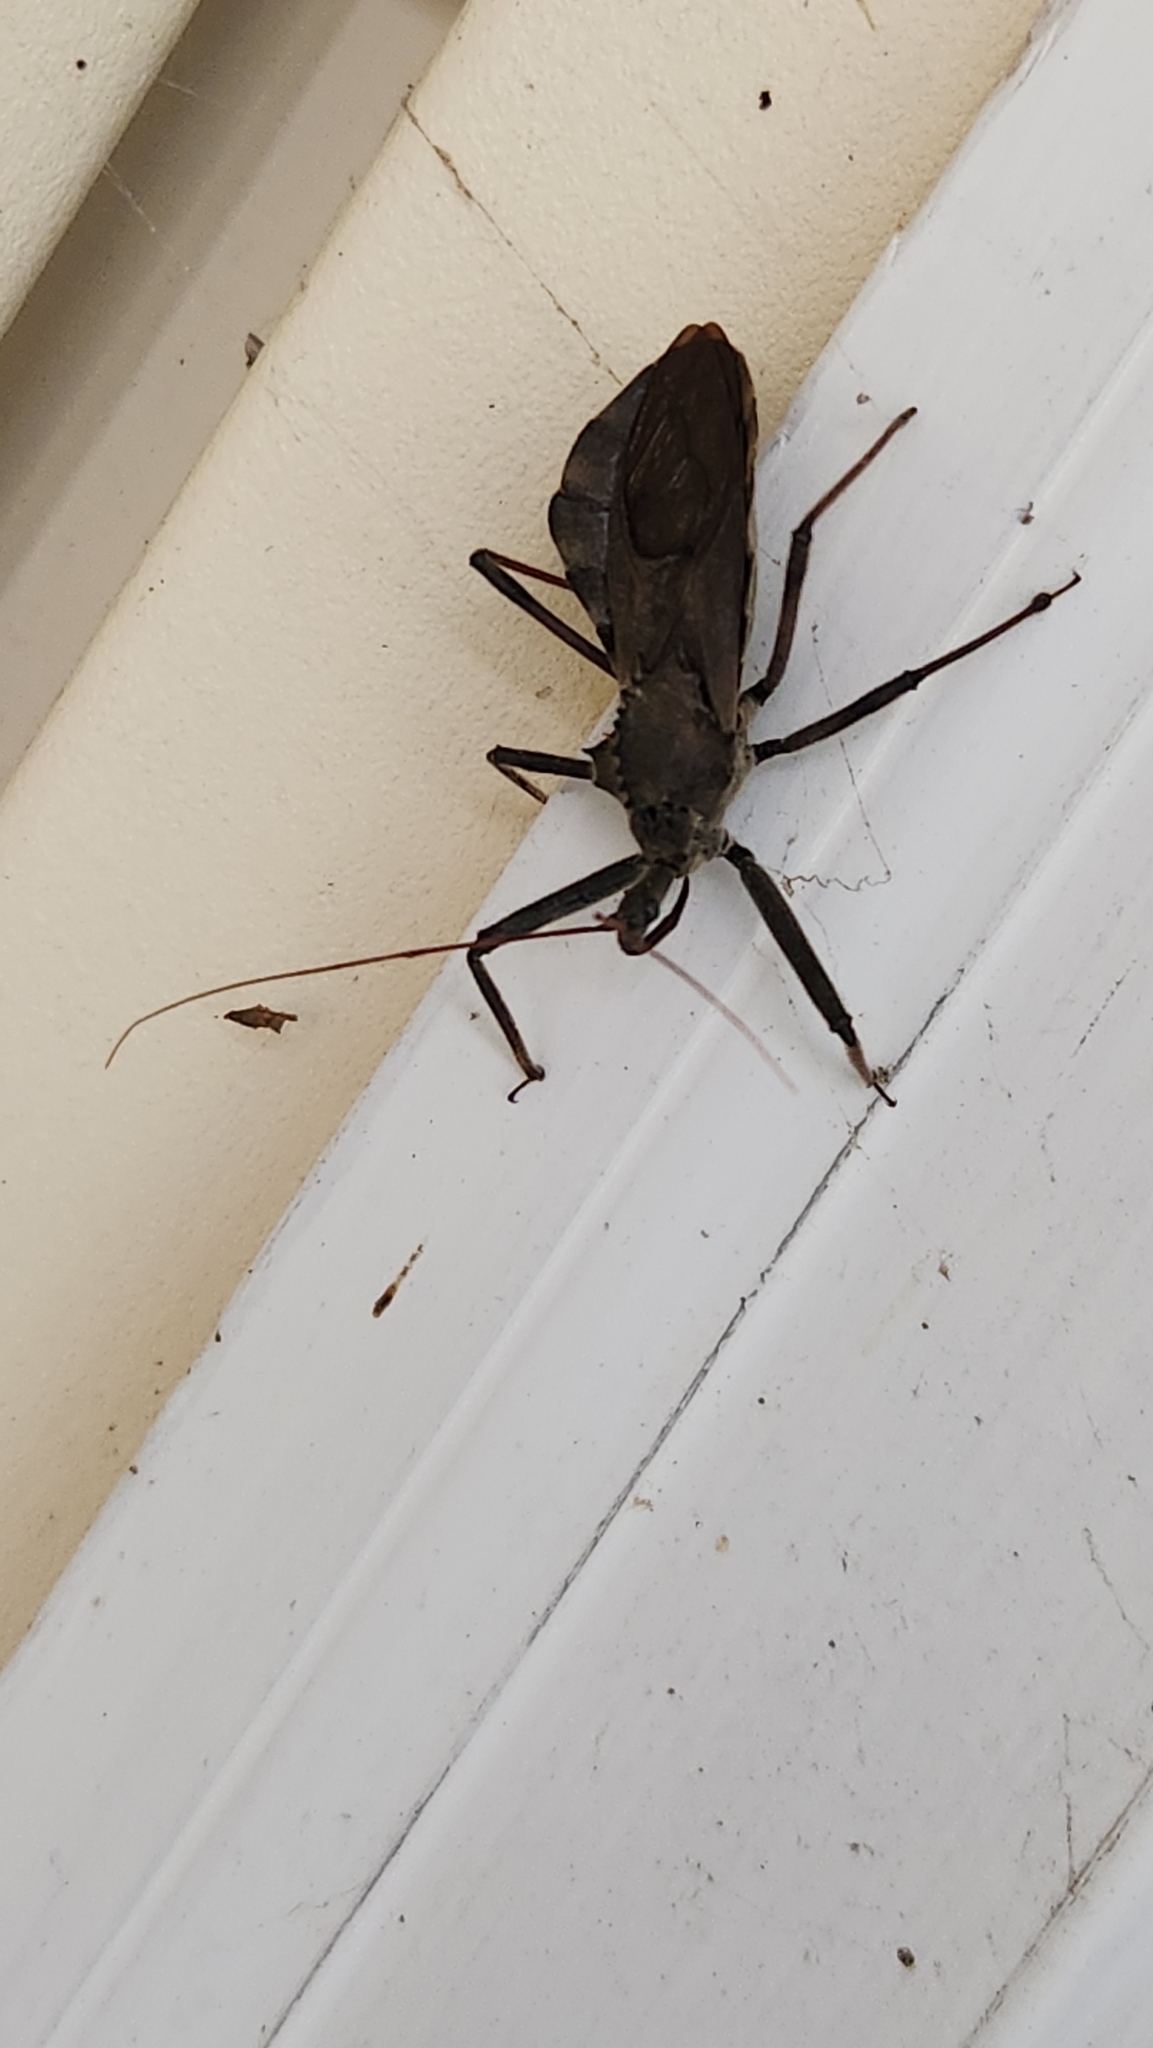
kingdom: Animalia
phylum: Arthropoda
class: Insecta
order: Hemiptera
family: Reduviidae
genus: Arilus
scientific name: Arilus cristatus
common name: North american wheel bug
